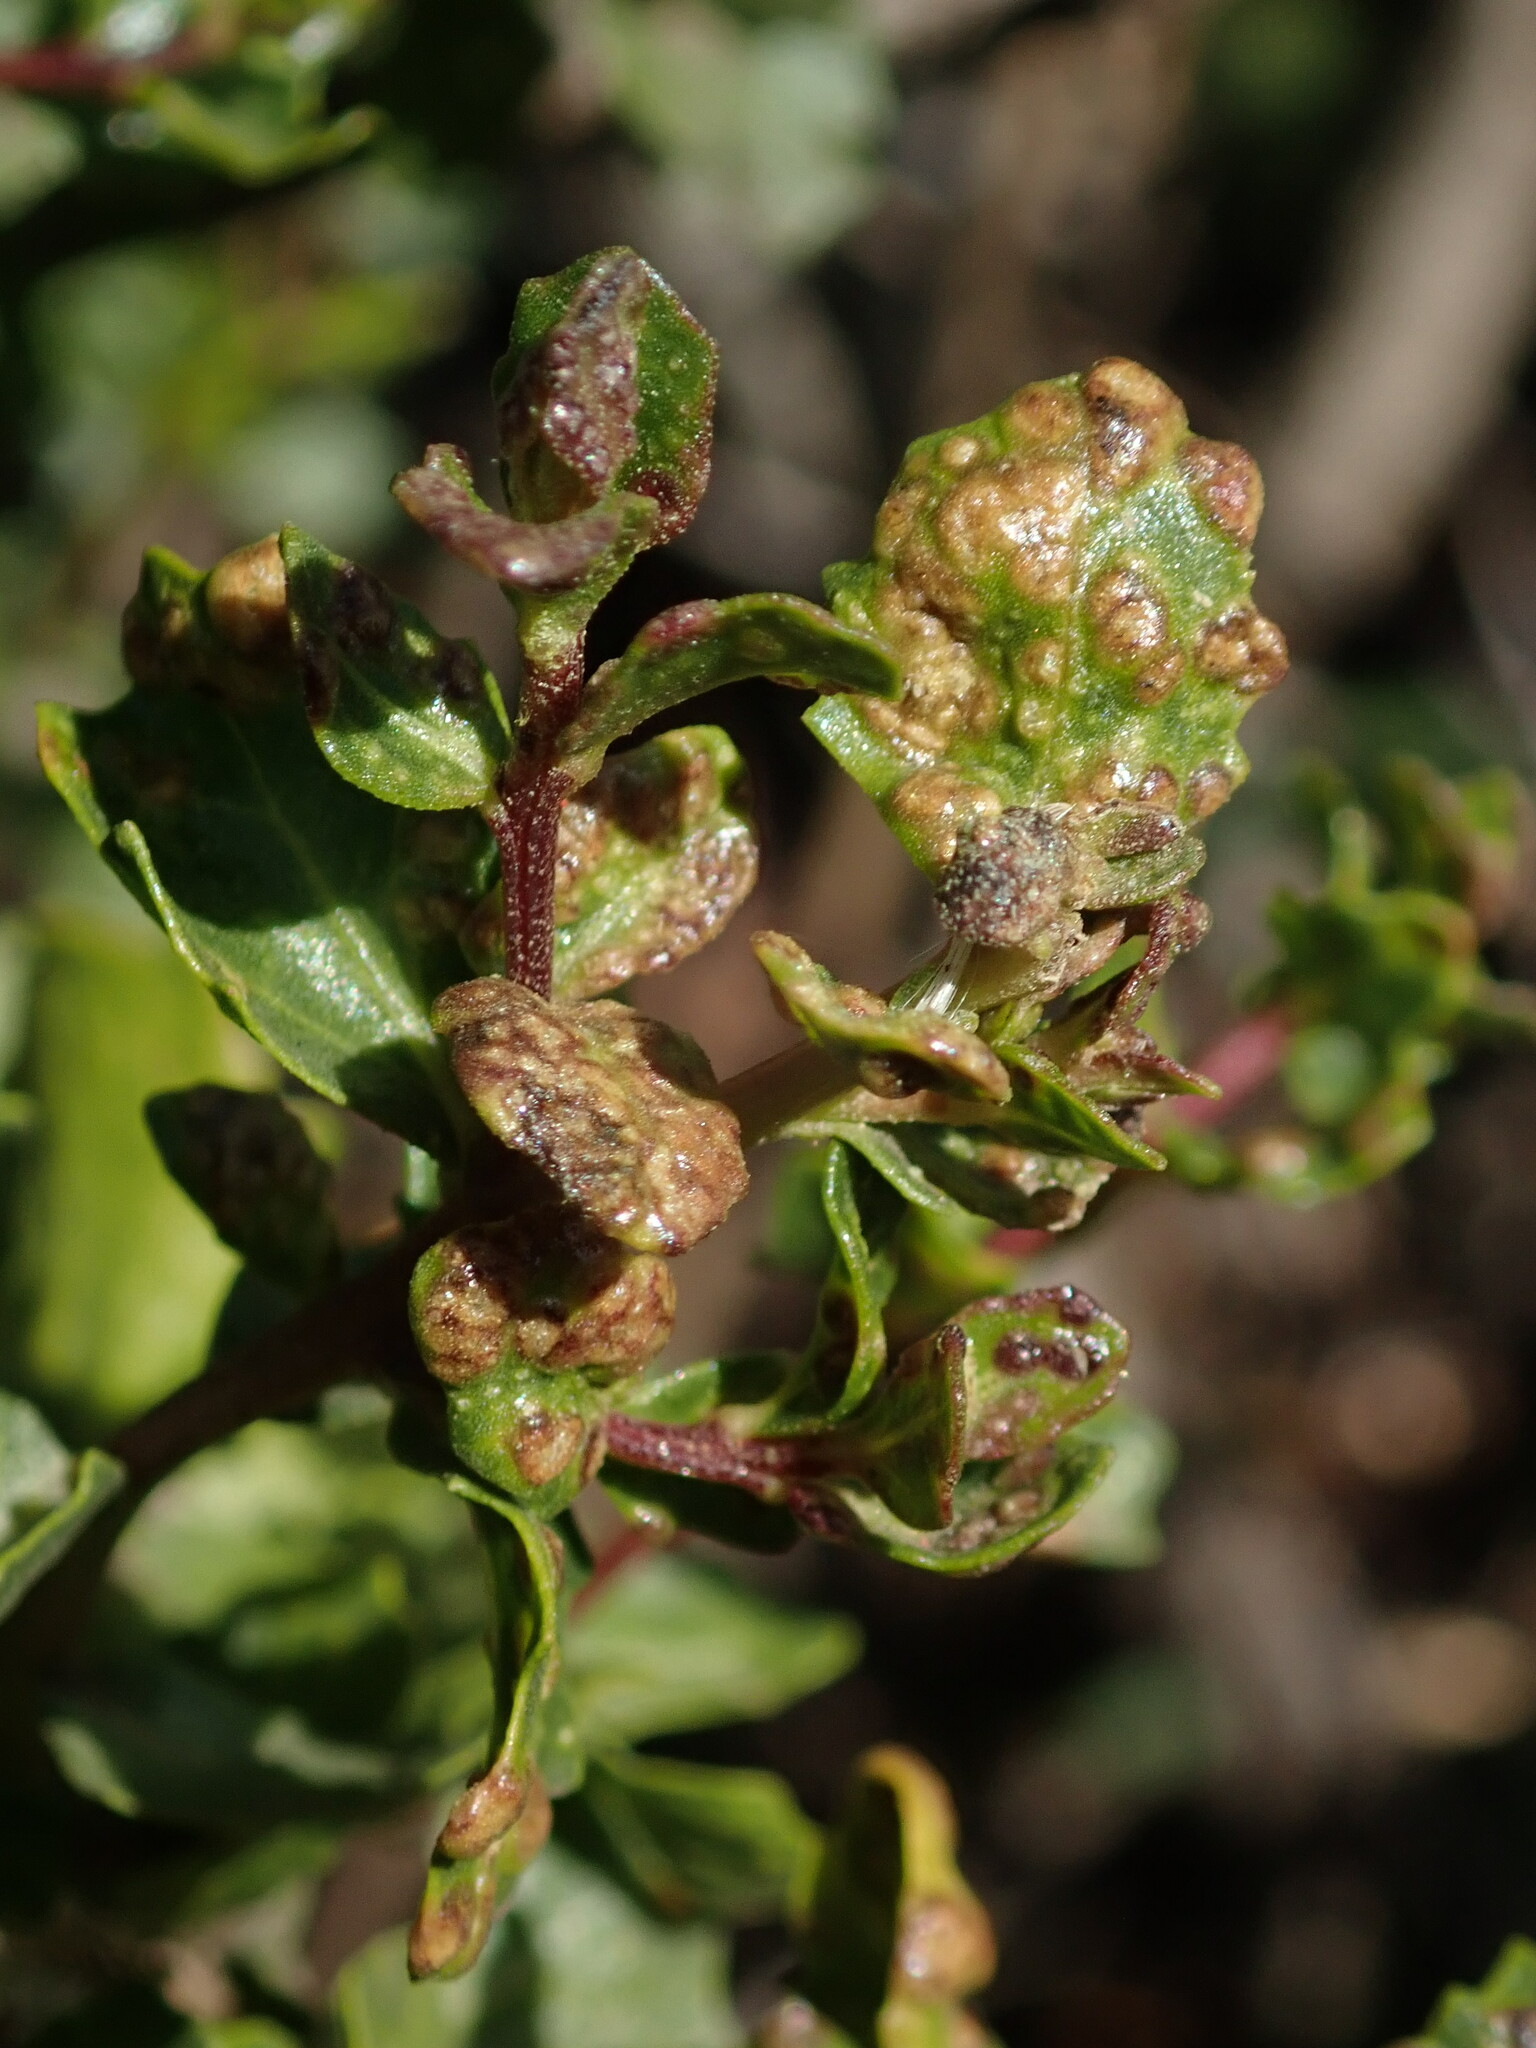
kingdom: Animalia
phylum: Arthropoda
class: Arachnida
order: Trombidiformes
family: Eriophyidae
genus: Aceria
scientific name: Aceria
